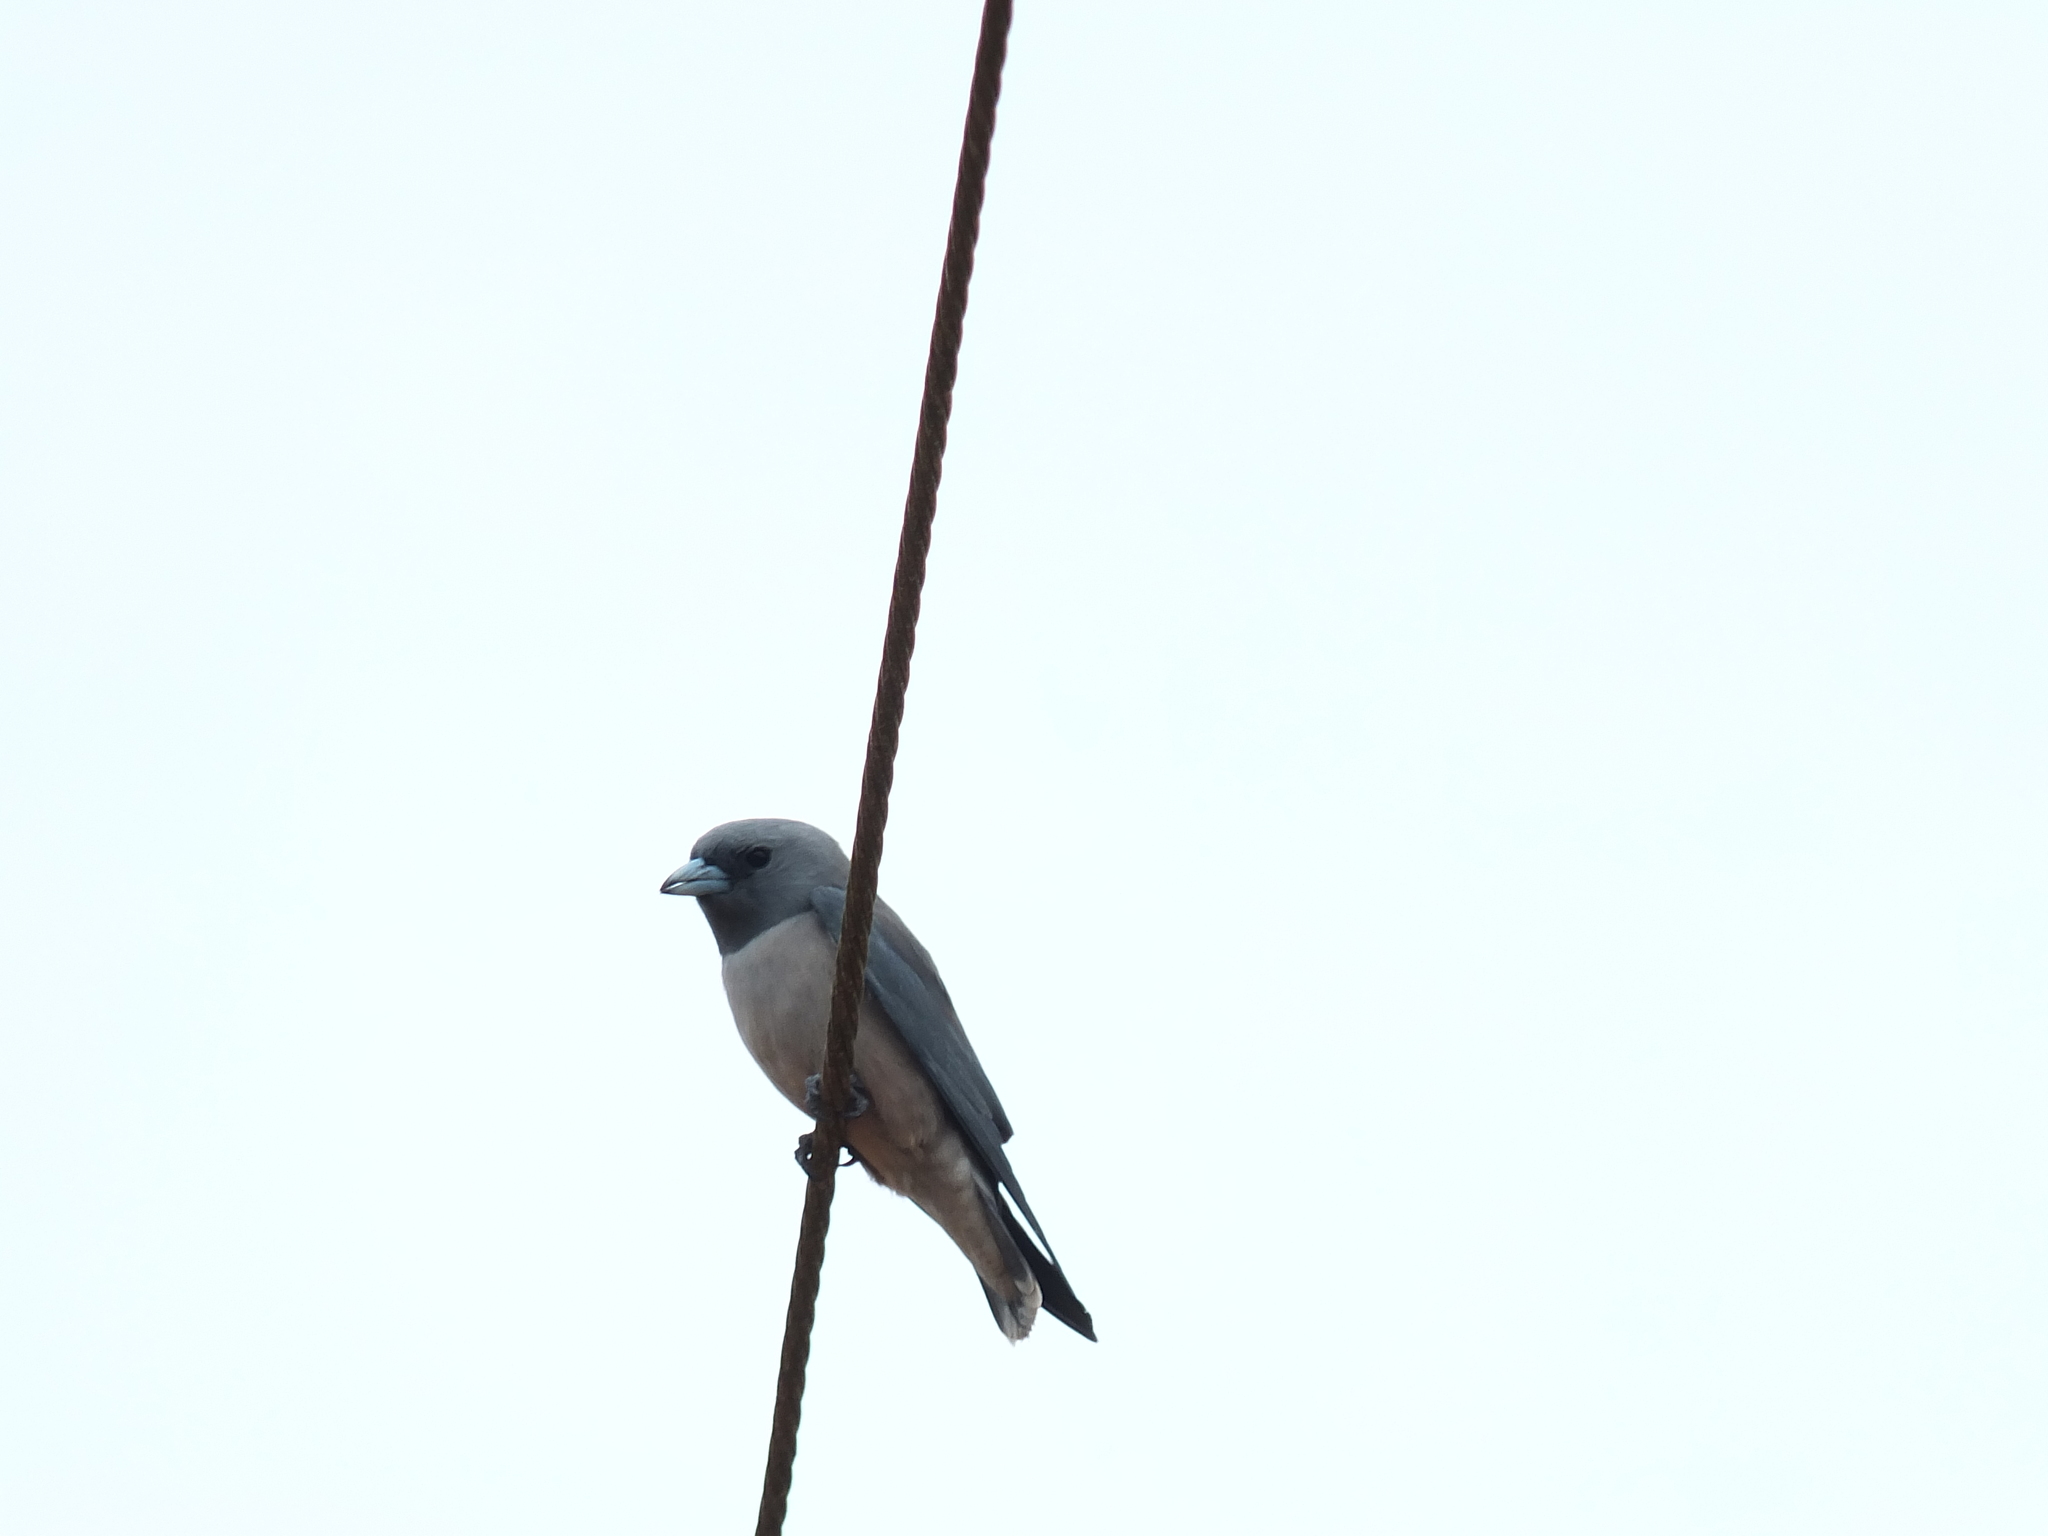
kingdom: Animalia
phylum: Chordata
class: Aves
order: Passeriformes
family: Artamidae
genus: Artamus
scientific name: Artamus fuscus
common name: Ashy woodswallow
